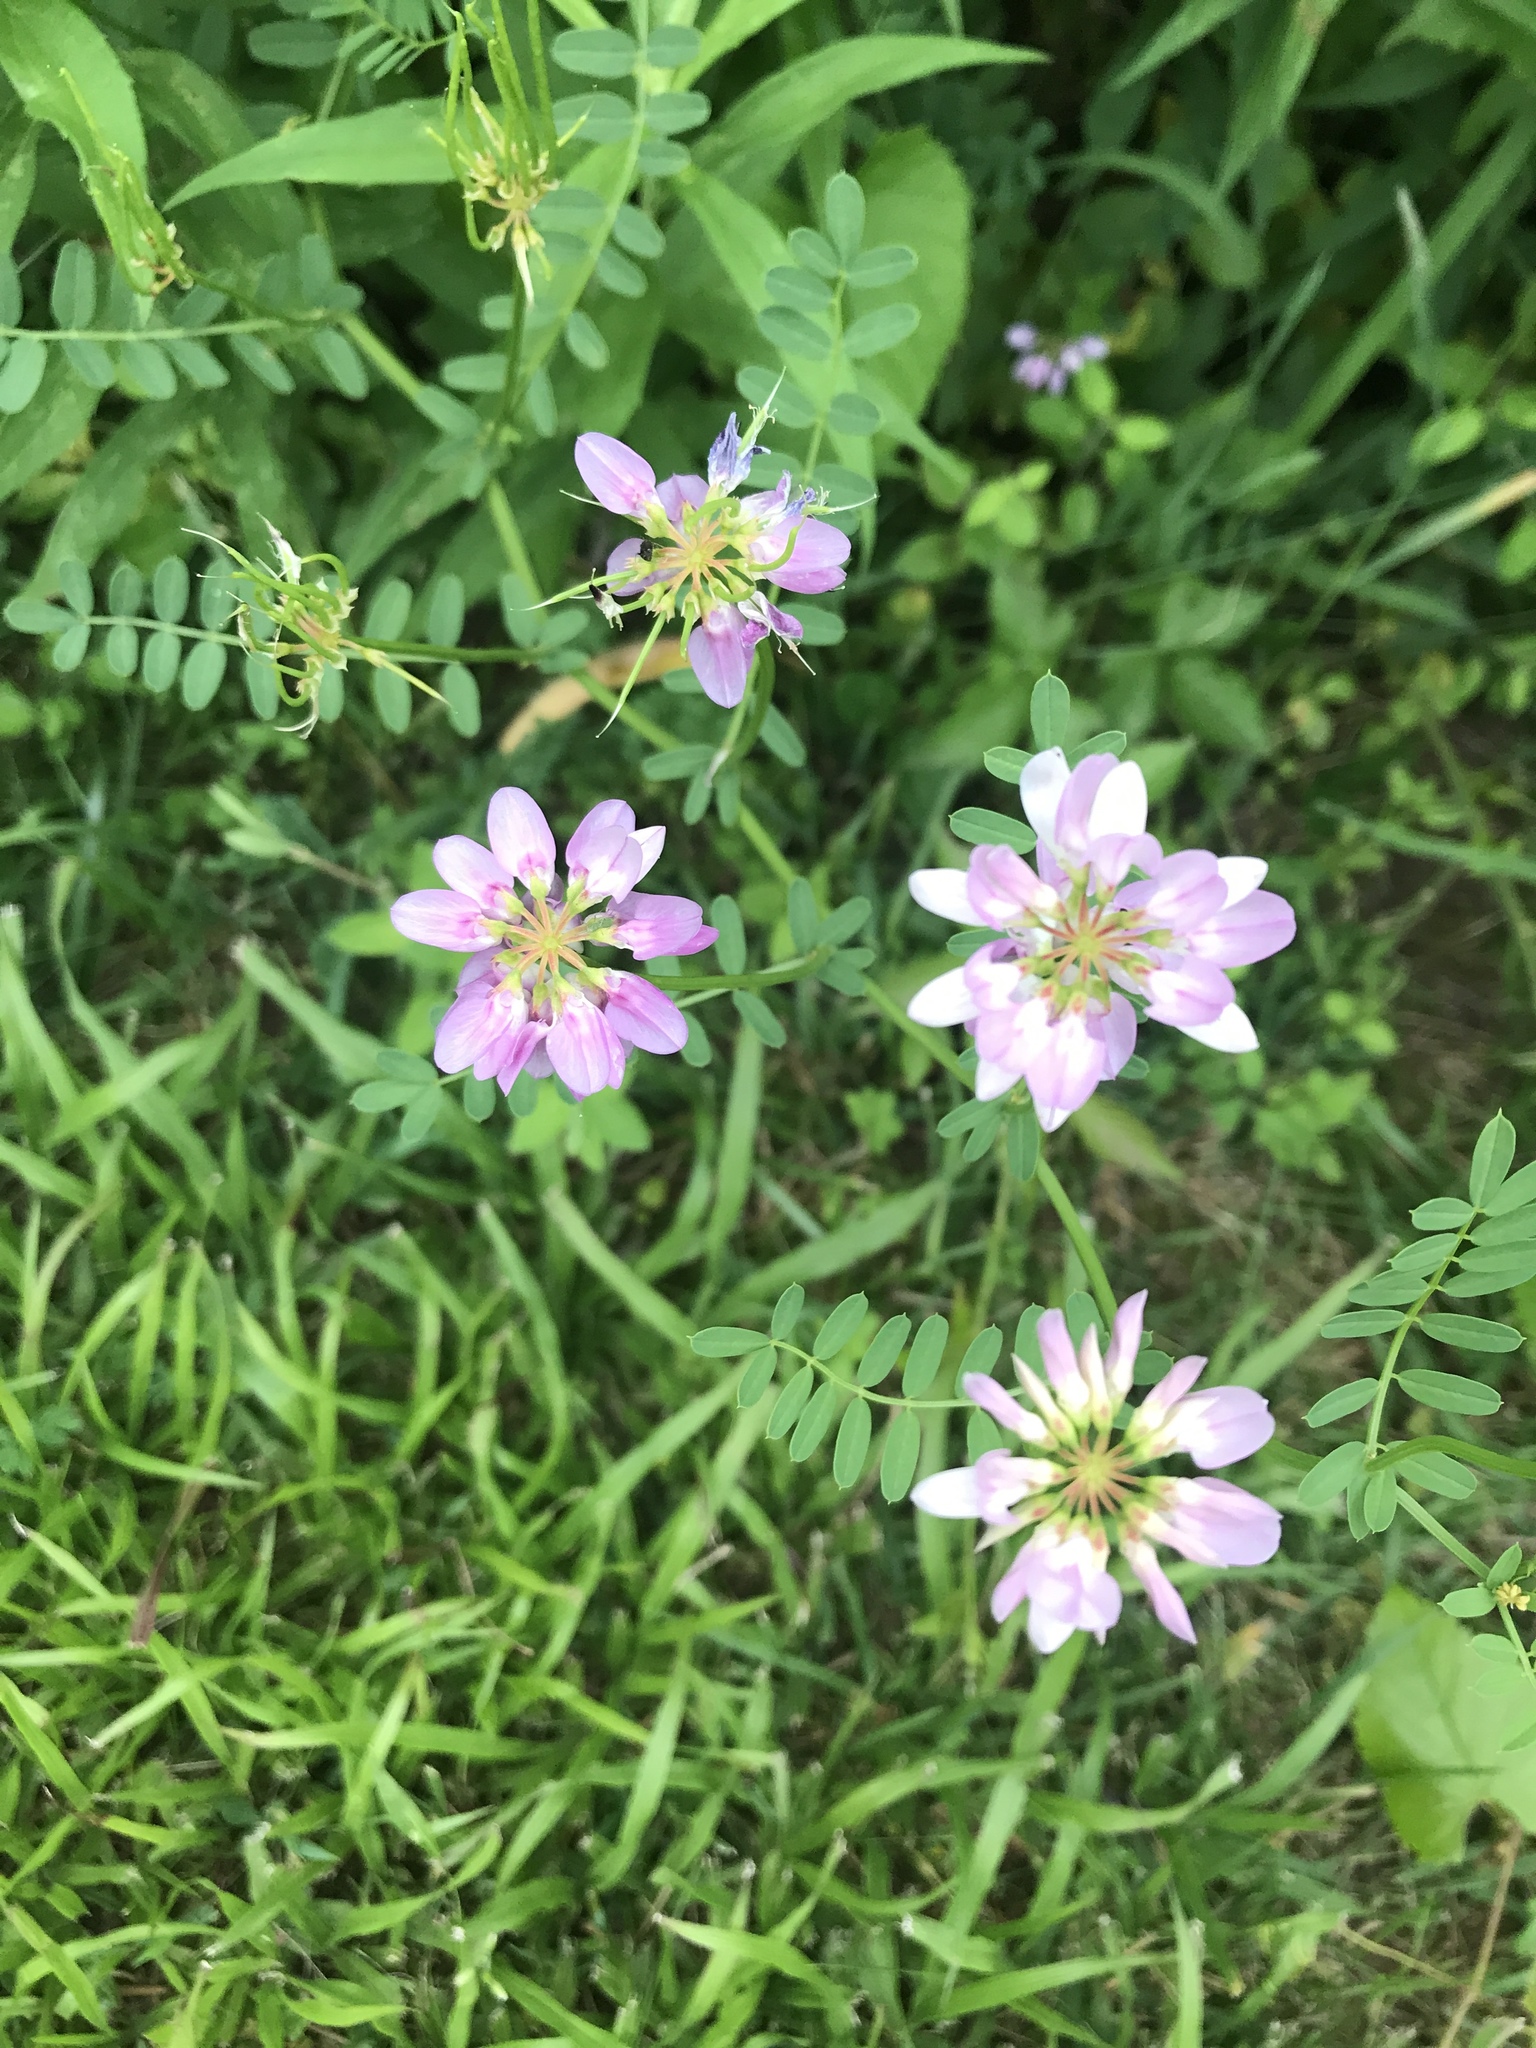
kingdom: Plantae
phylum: Tracheophyta
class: Magnoliopsida
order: Fabales
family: Fabaceae
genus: Coronilla
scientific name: Coronilla varia
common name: Crownvetch
